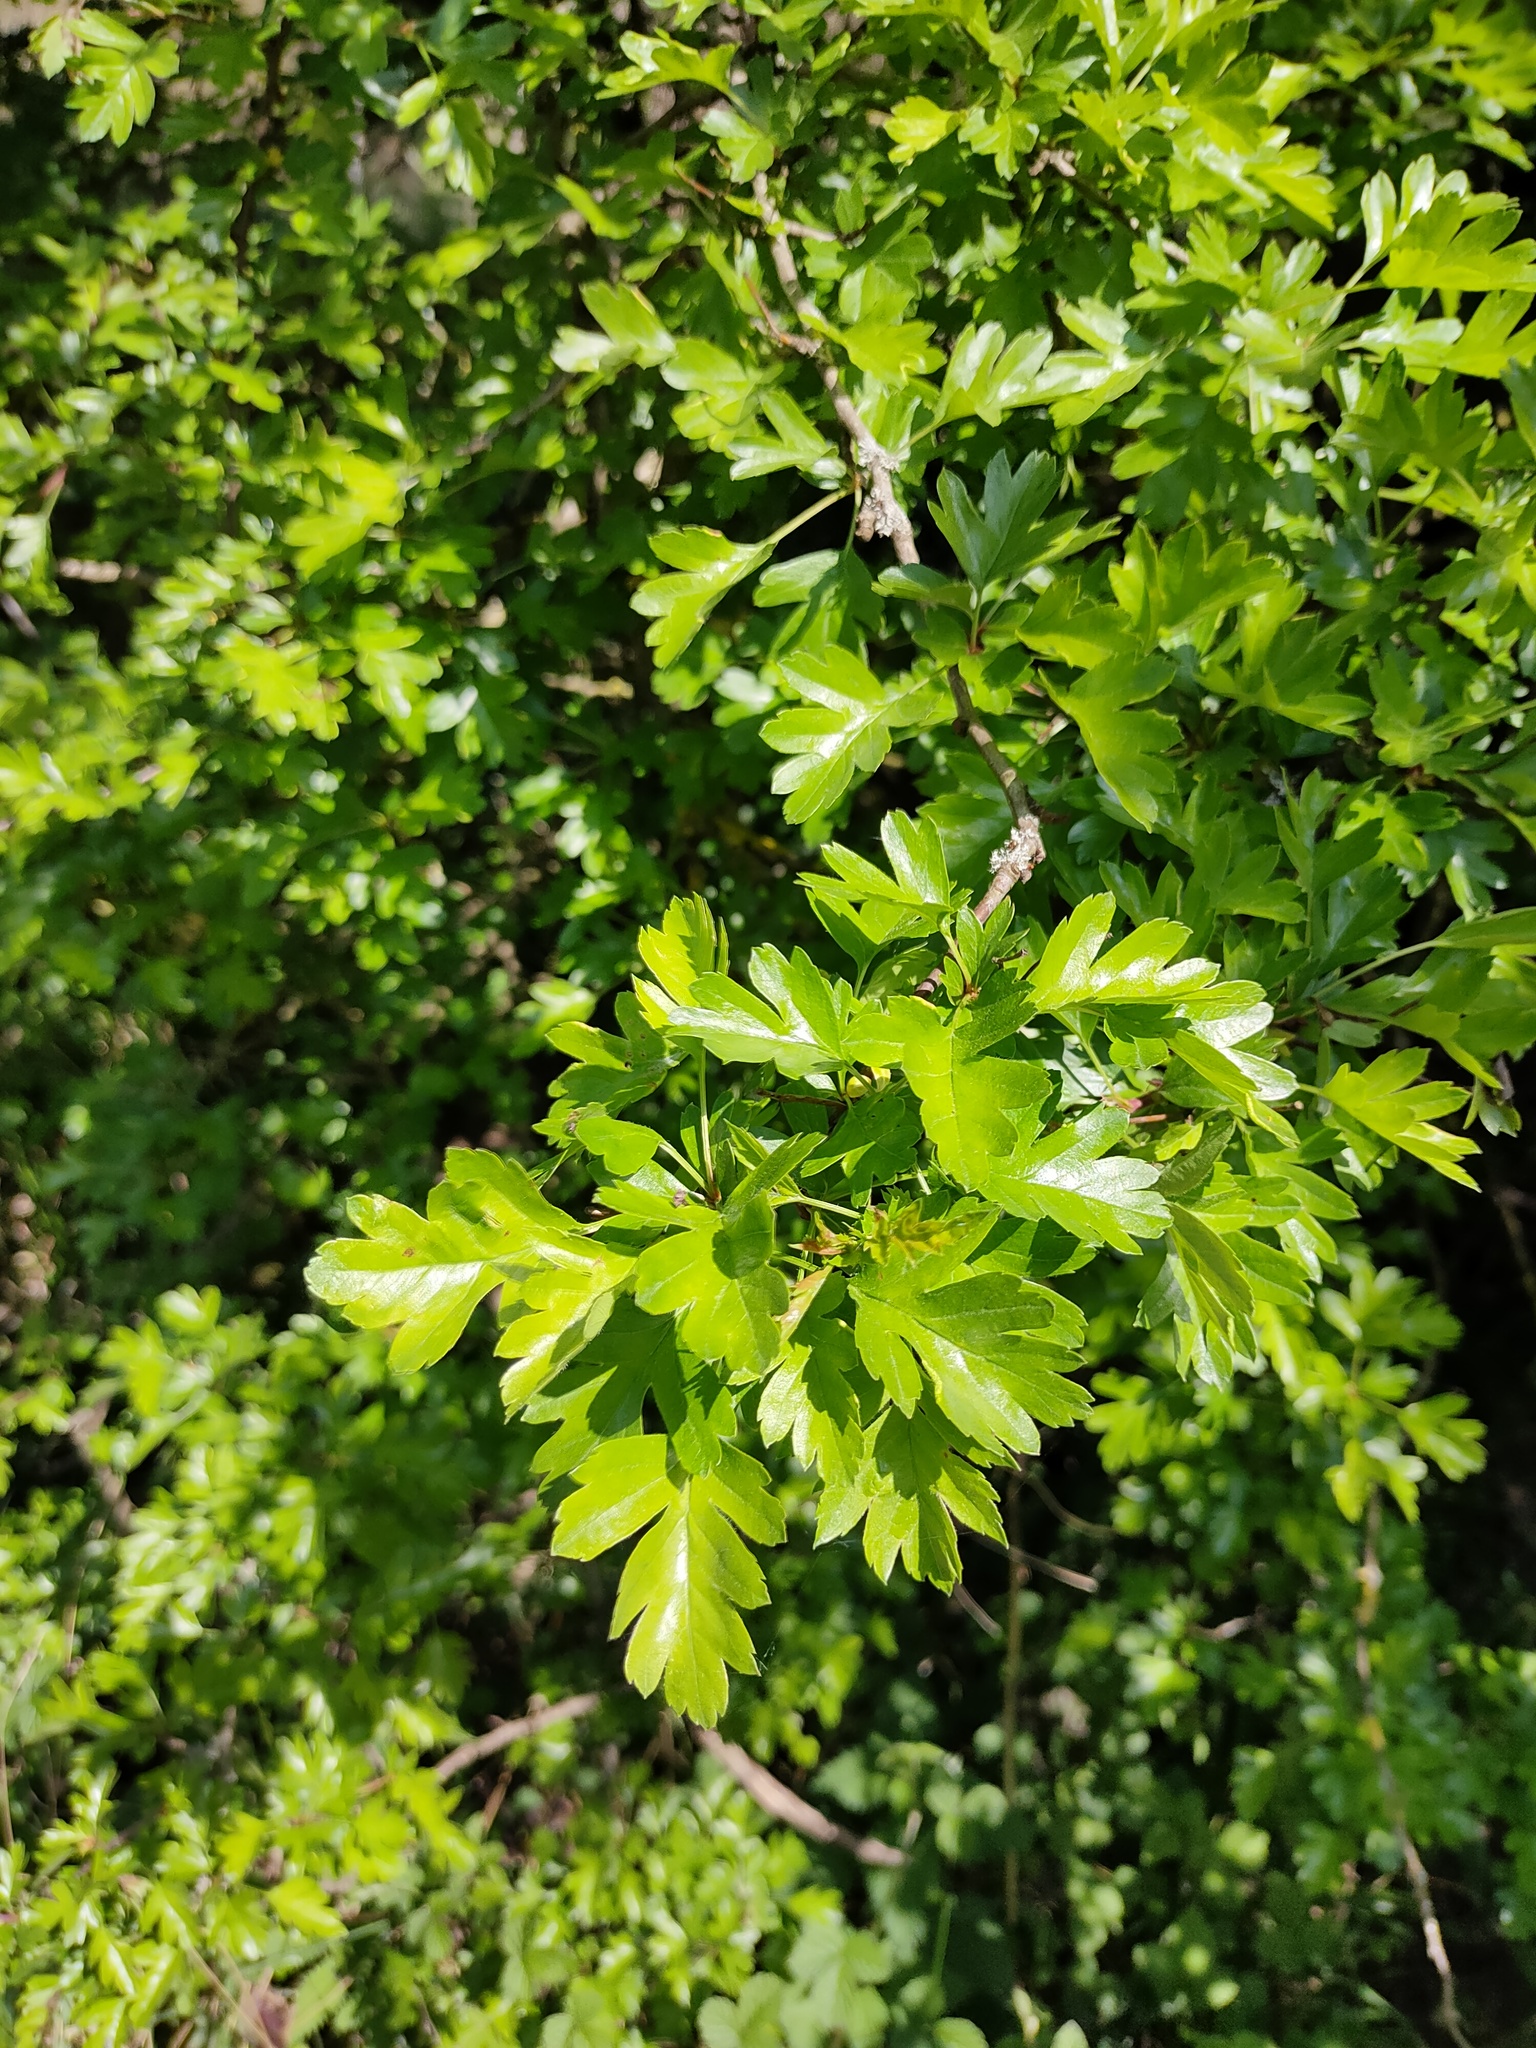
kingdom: Plantae
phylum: Tracheophyta
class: Magnoliopsida
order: Rosales
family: Rosaceae
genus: Crataegus
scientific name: Crataegus monogyna
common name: Hawthorn
